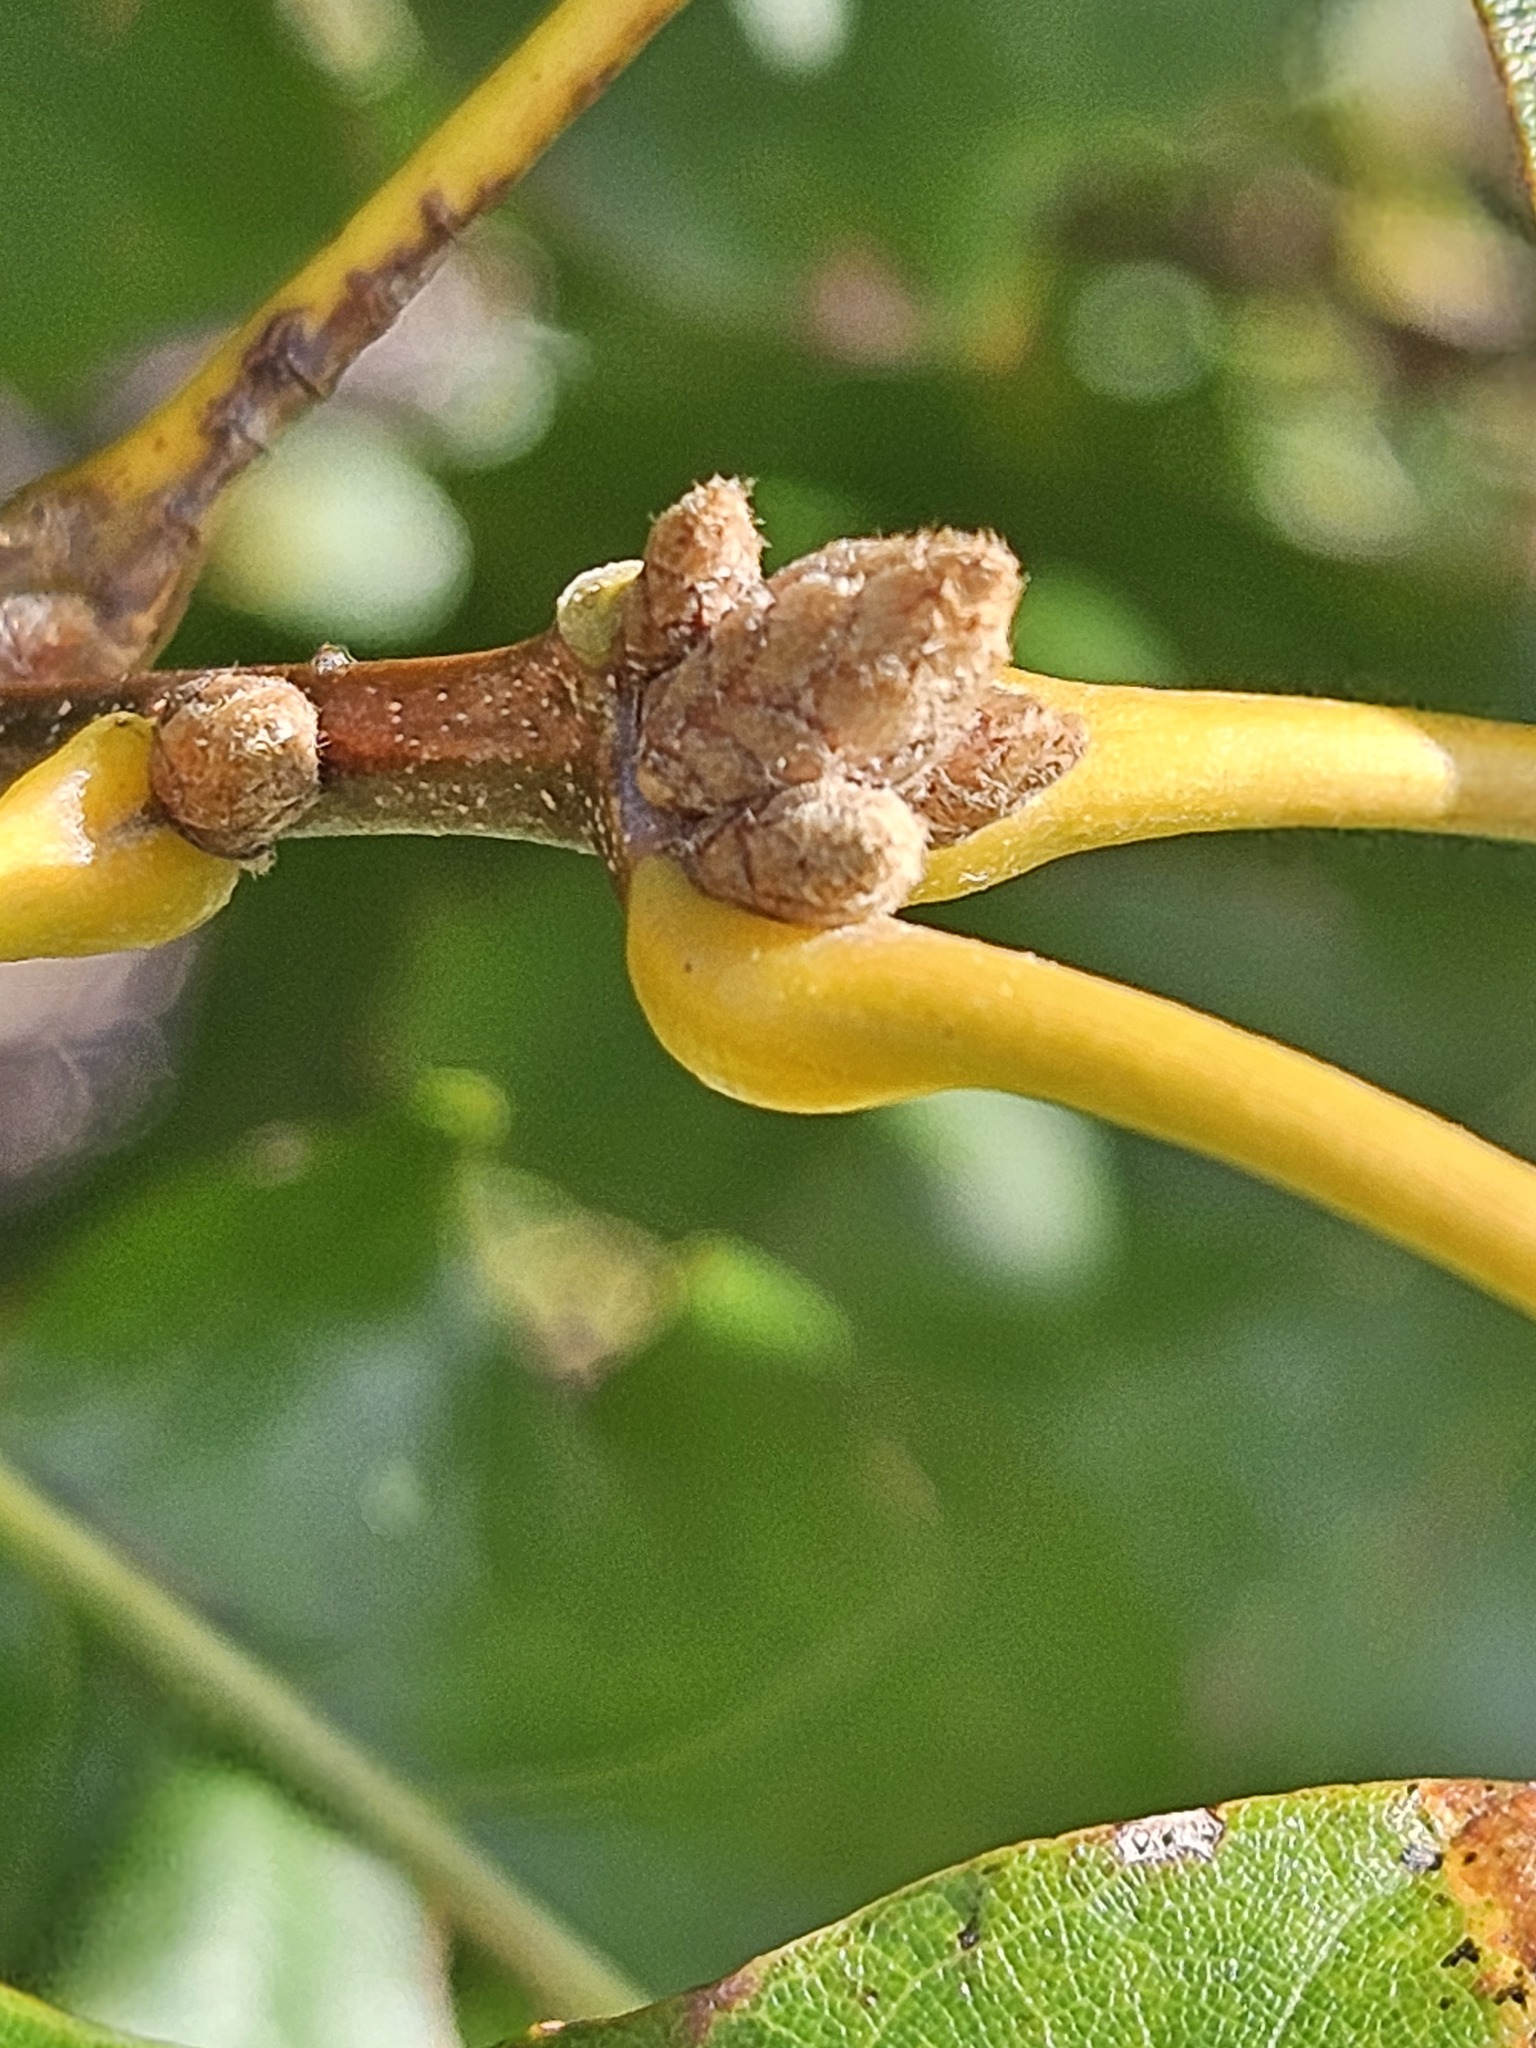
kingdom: Plantae
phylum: Tracheophyta
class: Magnoliopsida
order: Fagales
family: Fagaceae
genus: Quercus
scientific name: Quercus velutina
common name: Black oak
